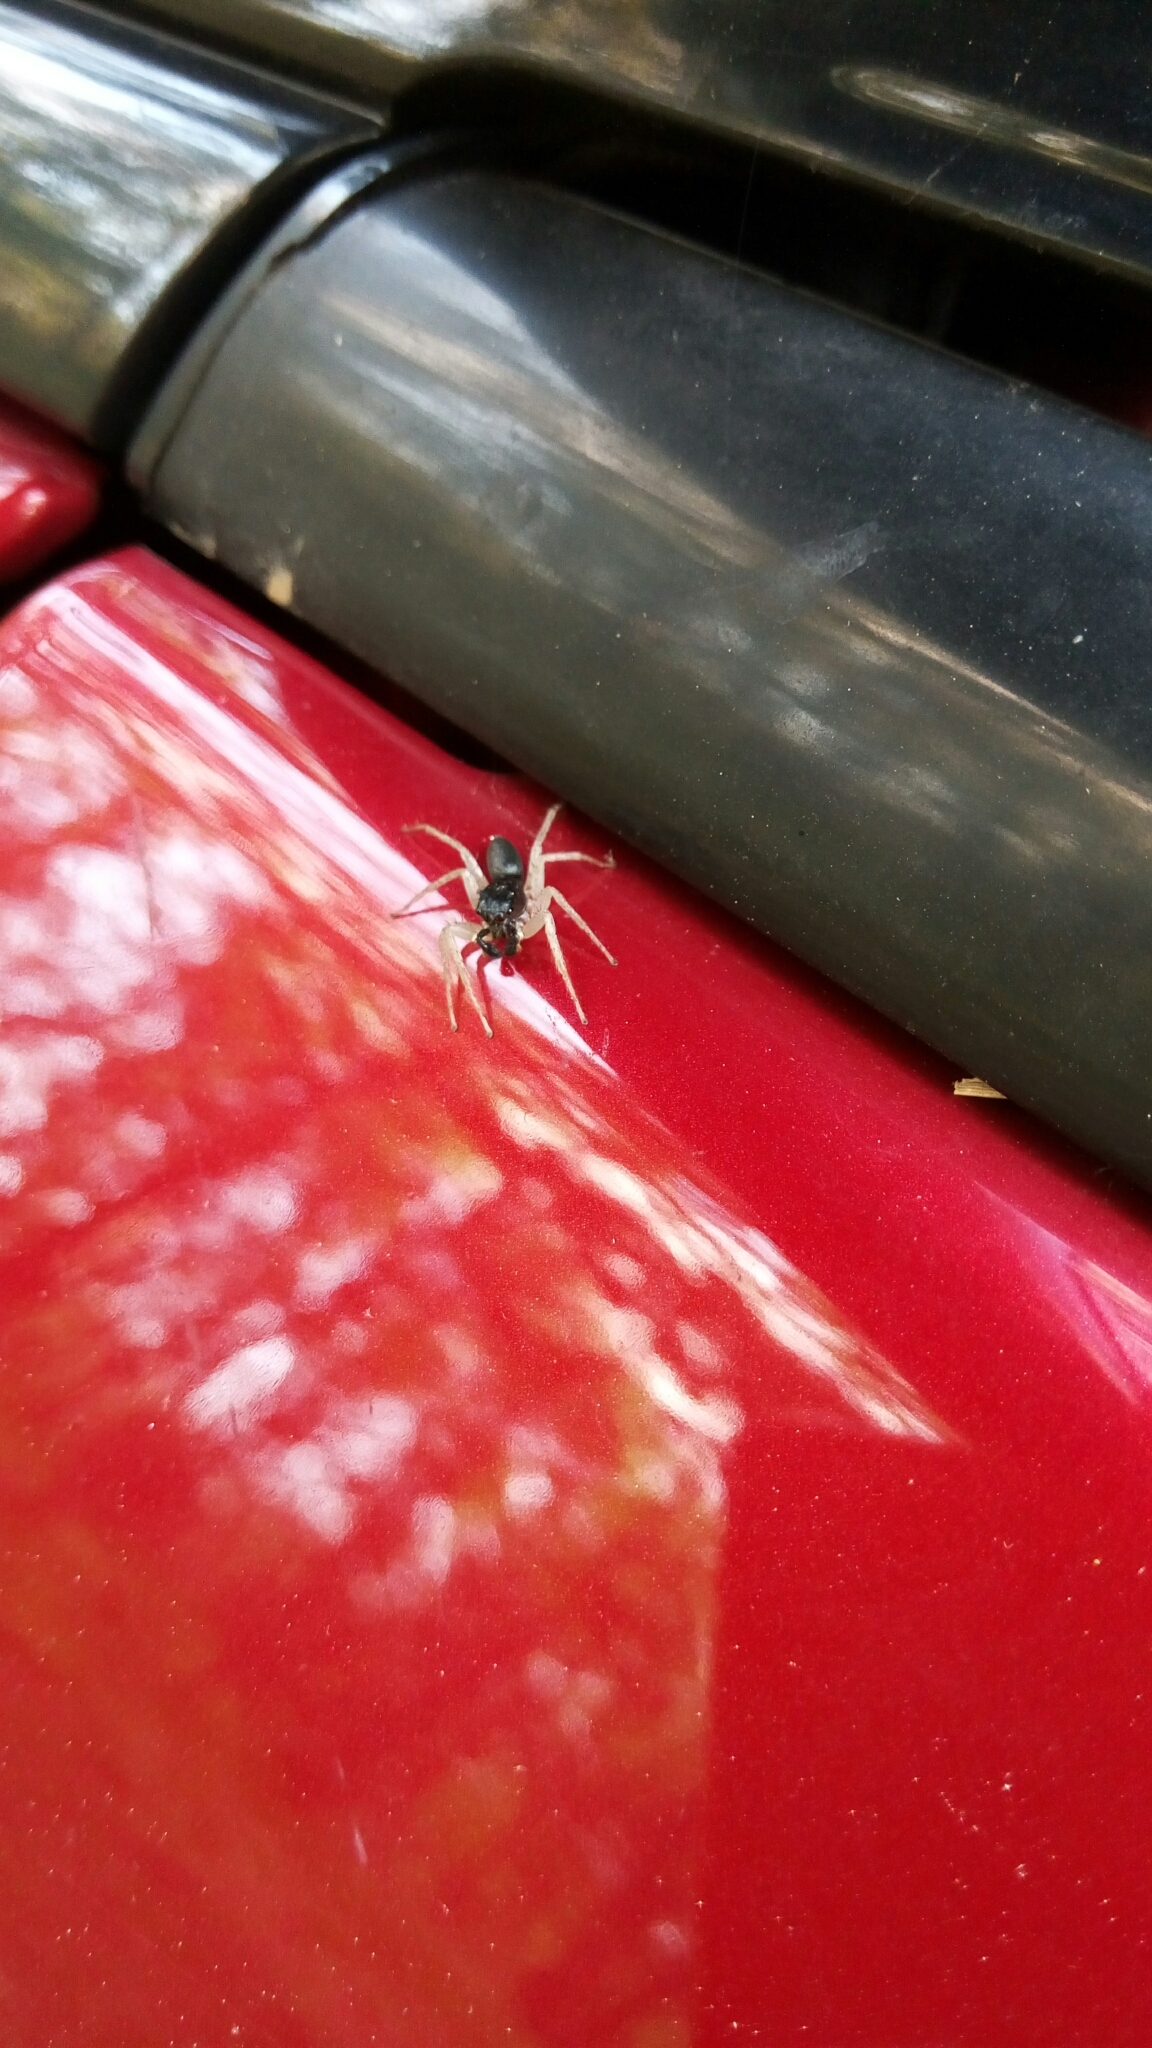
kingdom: Animalia
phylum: Arthropoda
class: Arachnida
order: Araneae
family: Salticidae
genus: Maevia
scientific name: Maevia inclemens
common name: Dimorphic jumper
